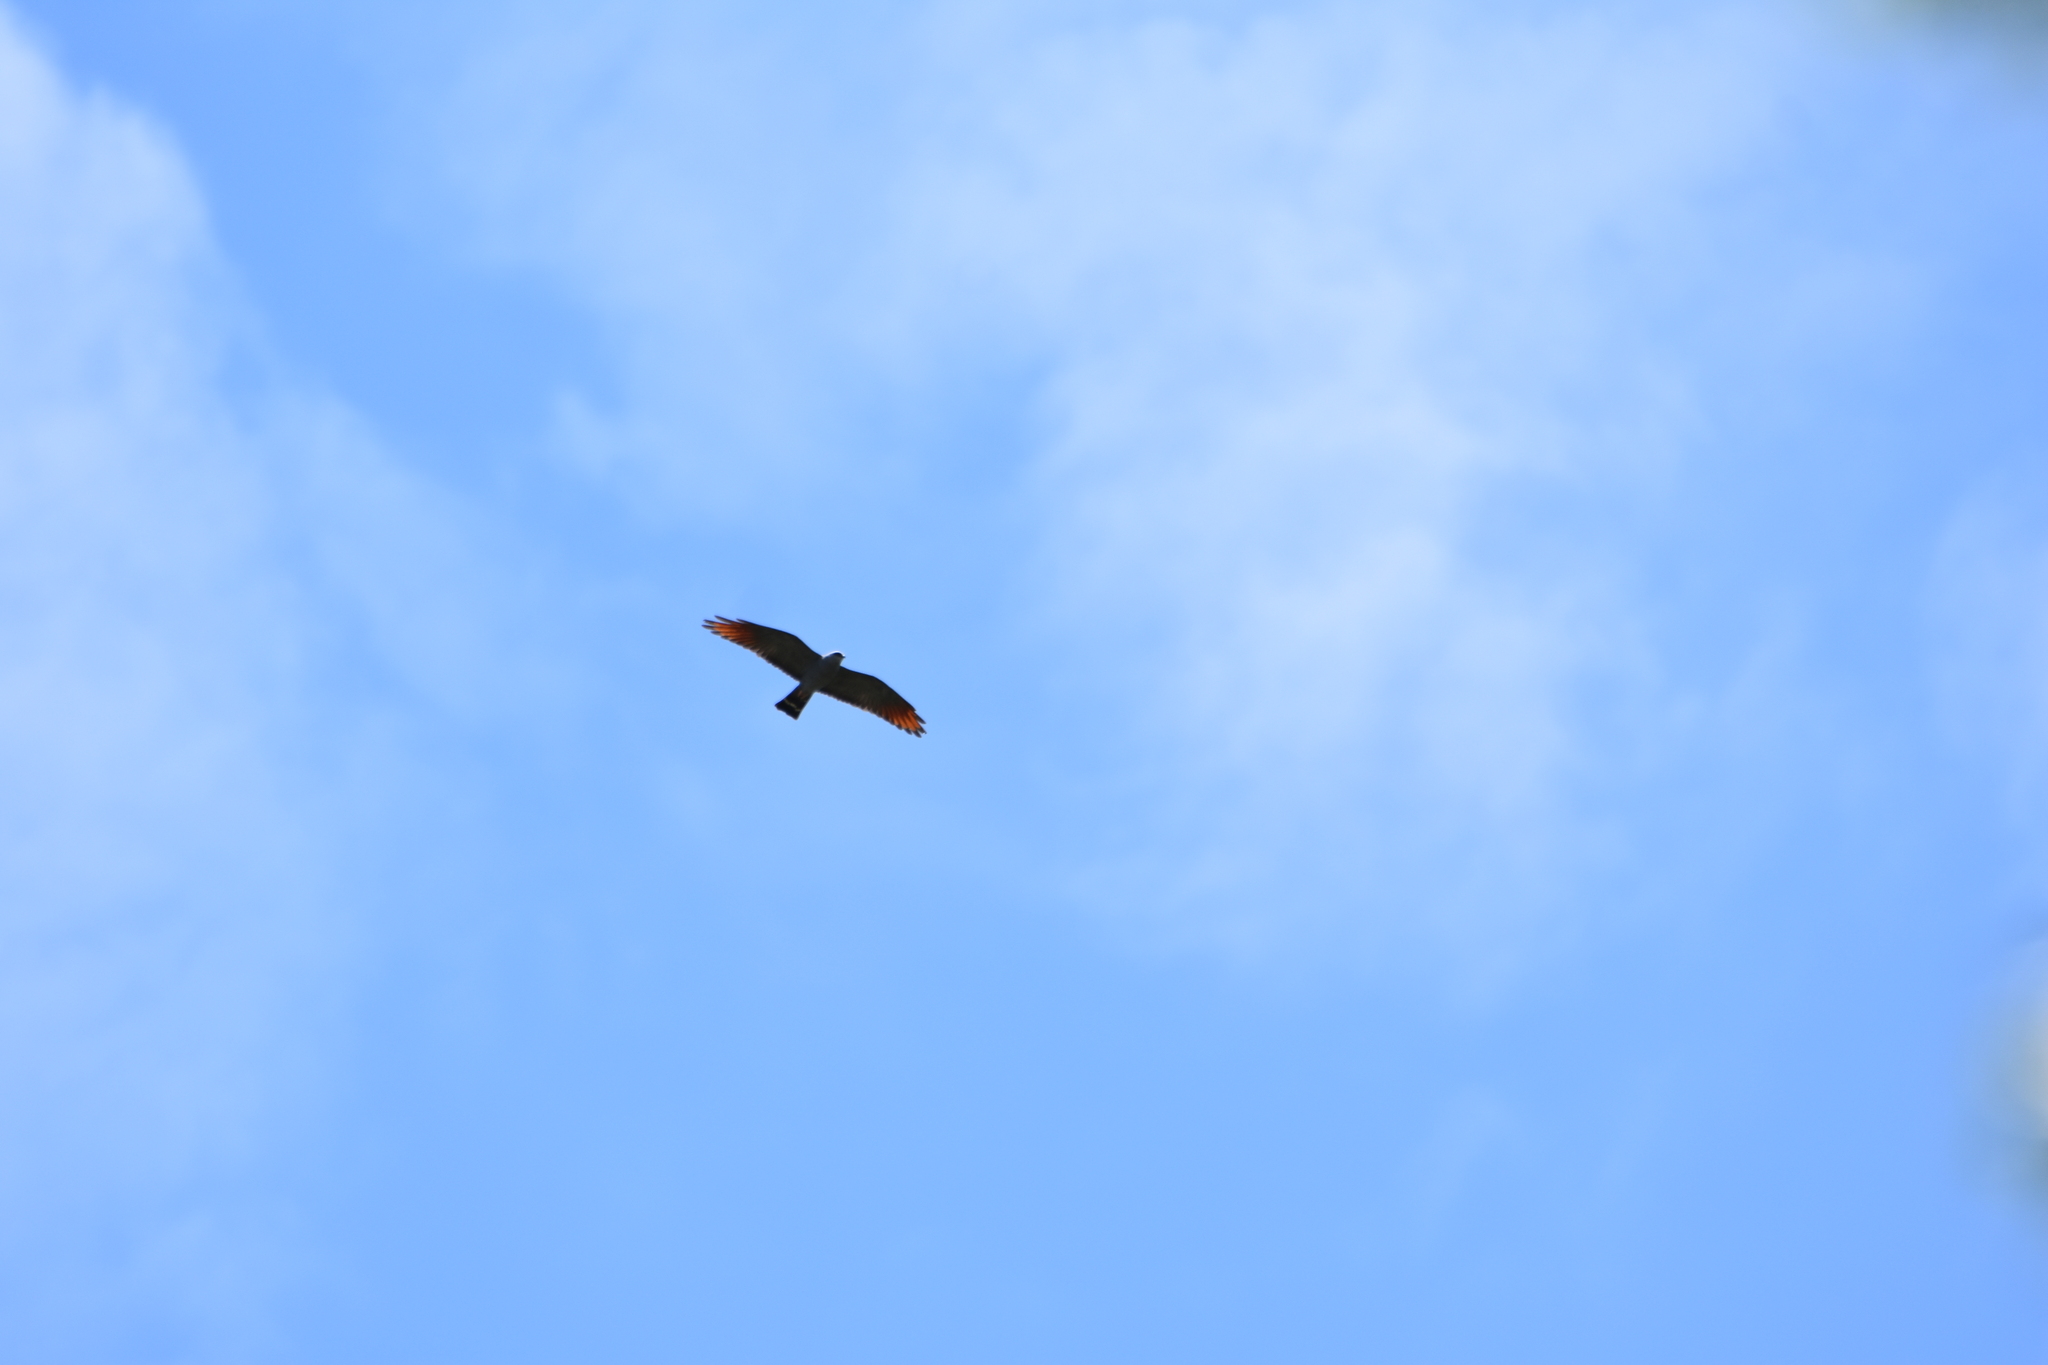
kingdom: Animalia
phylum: Chordata
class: Aves
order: Accipitriformes
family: Accipitridae
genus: Ictinia
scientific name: Ictinia plumbea
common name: Plumbeous kite
